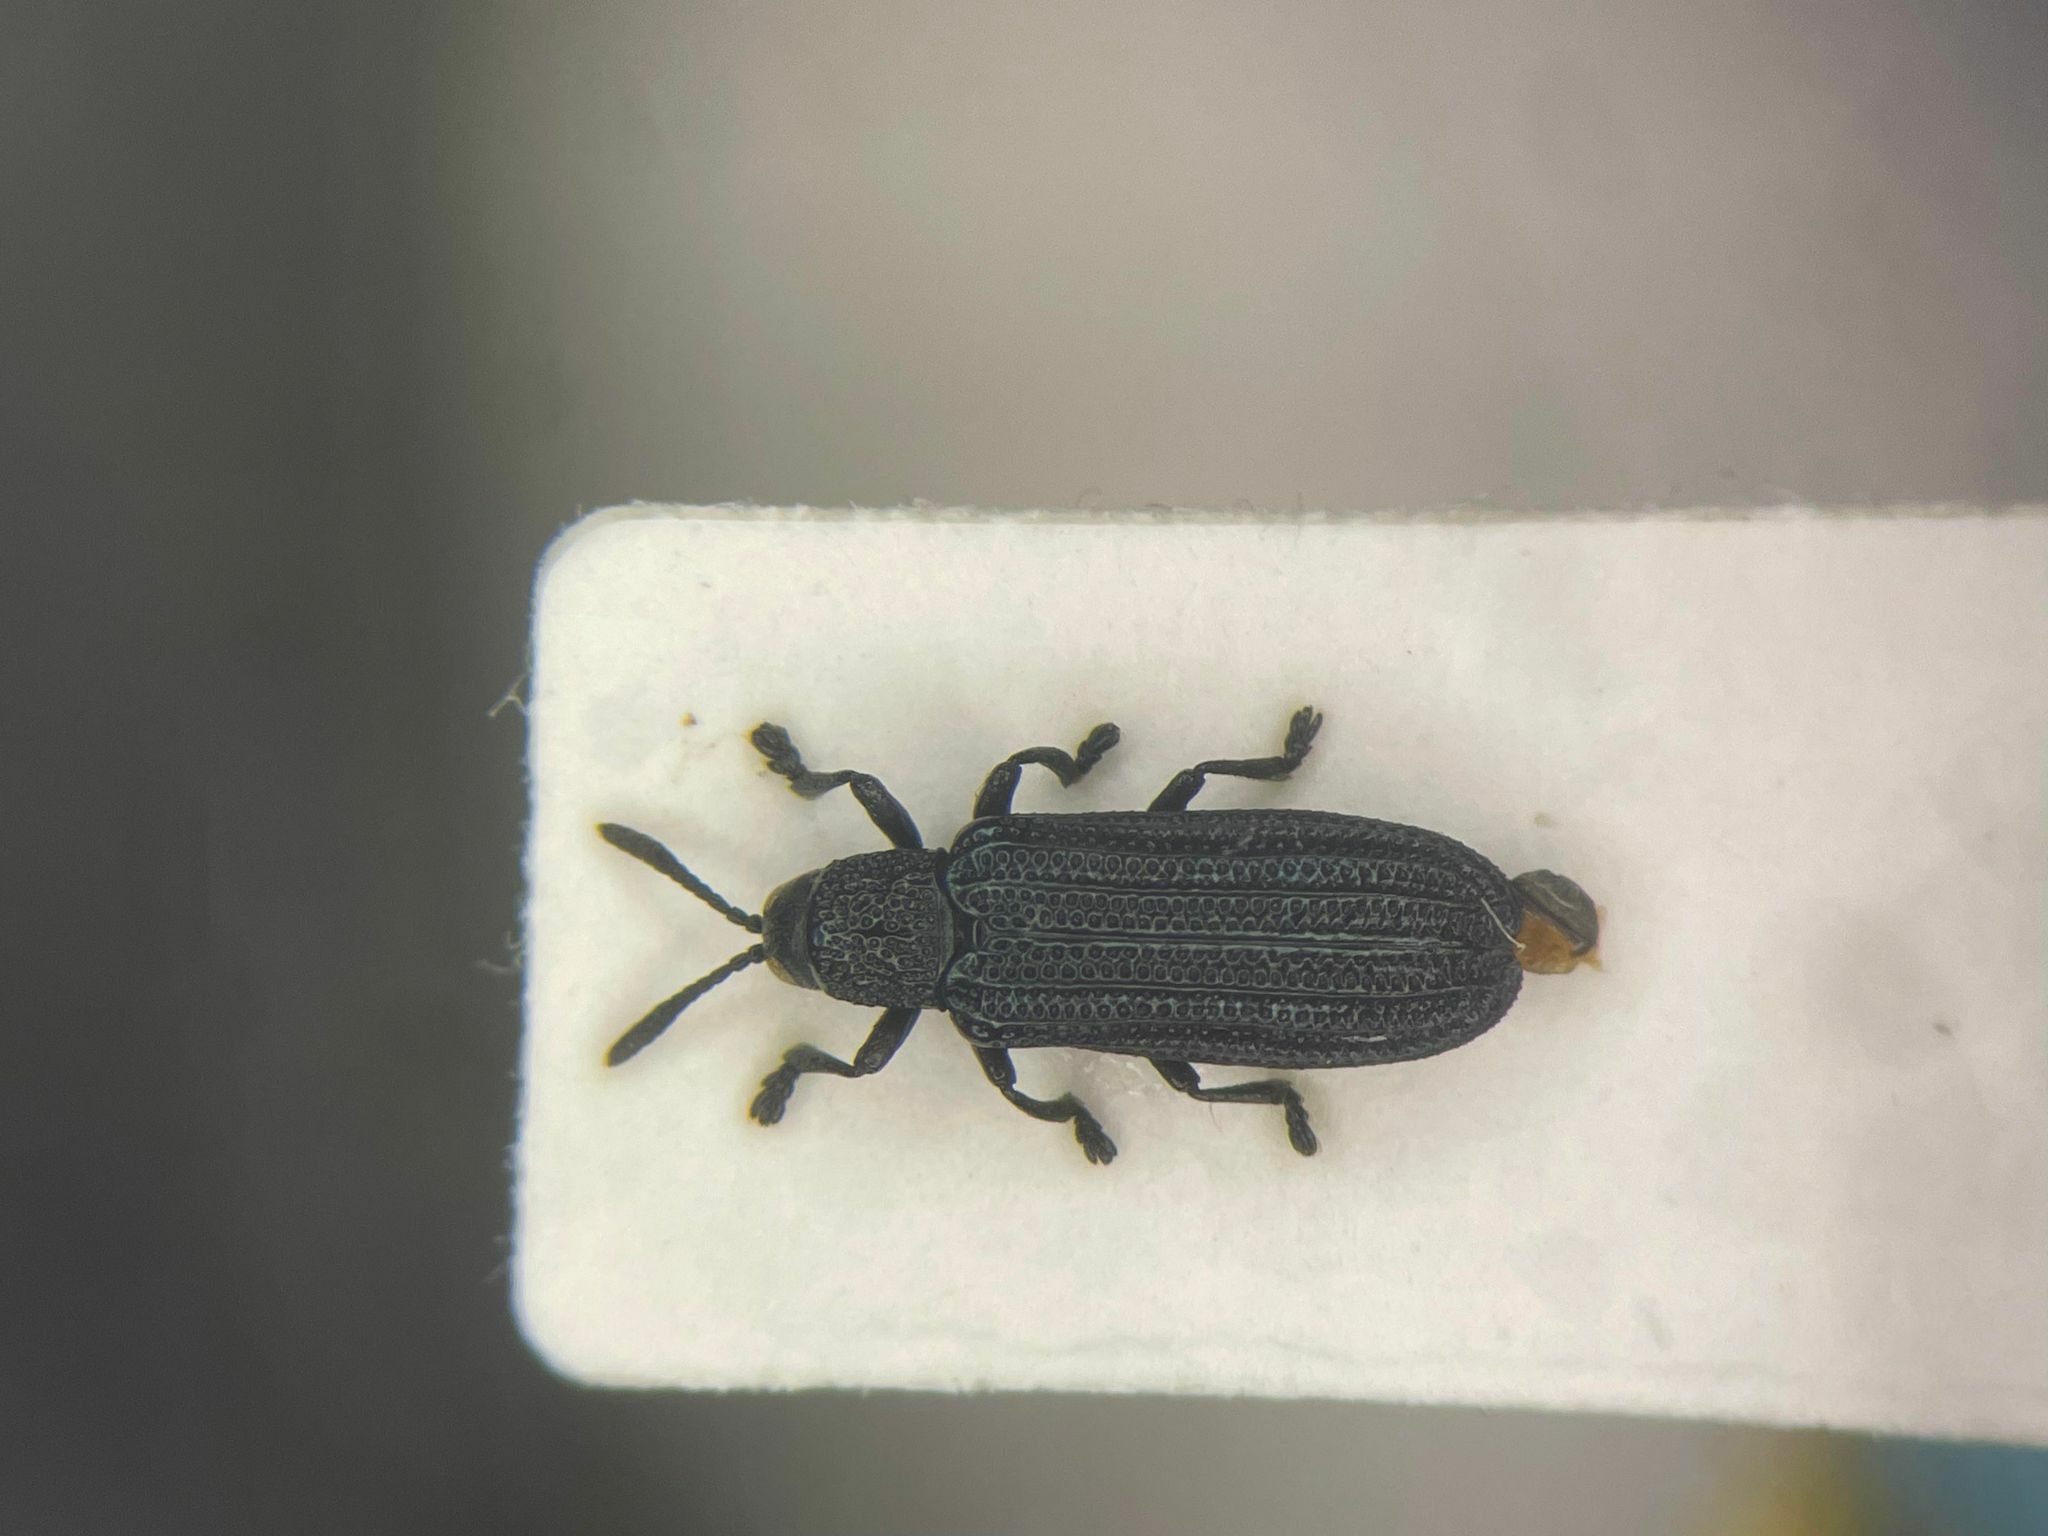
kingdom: Animalia
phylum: Arthropoda
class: Insecta
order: Coleoptera
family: Chrysomelidae
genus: Anisostena
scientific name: Anisostena nigrita
